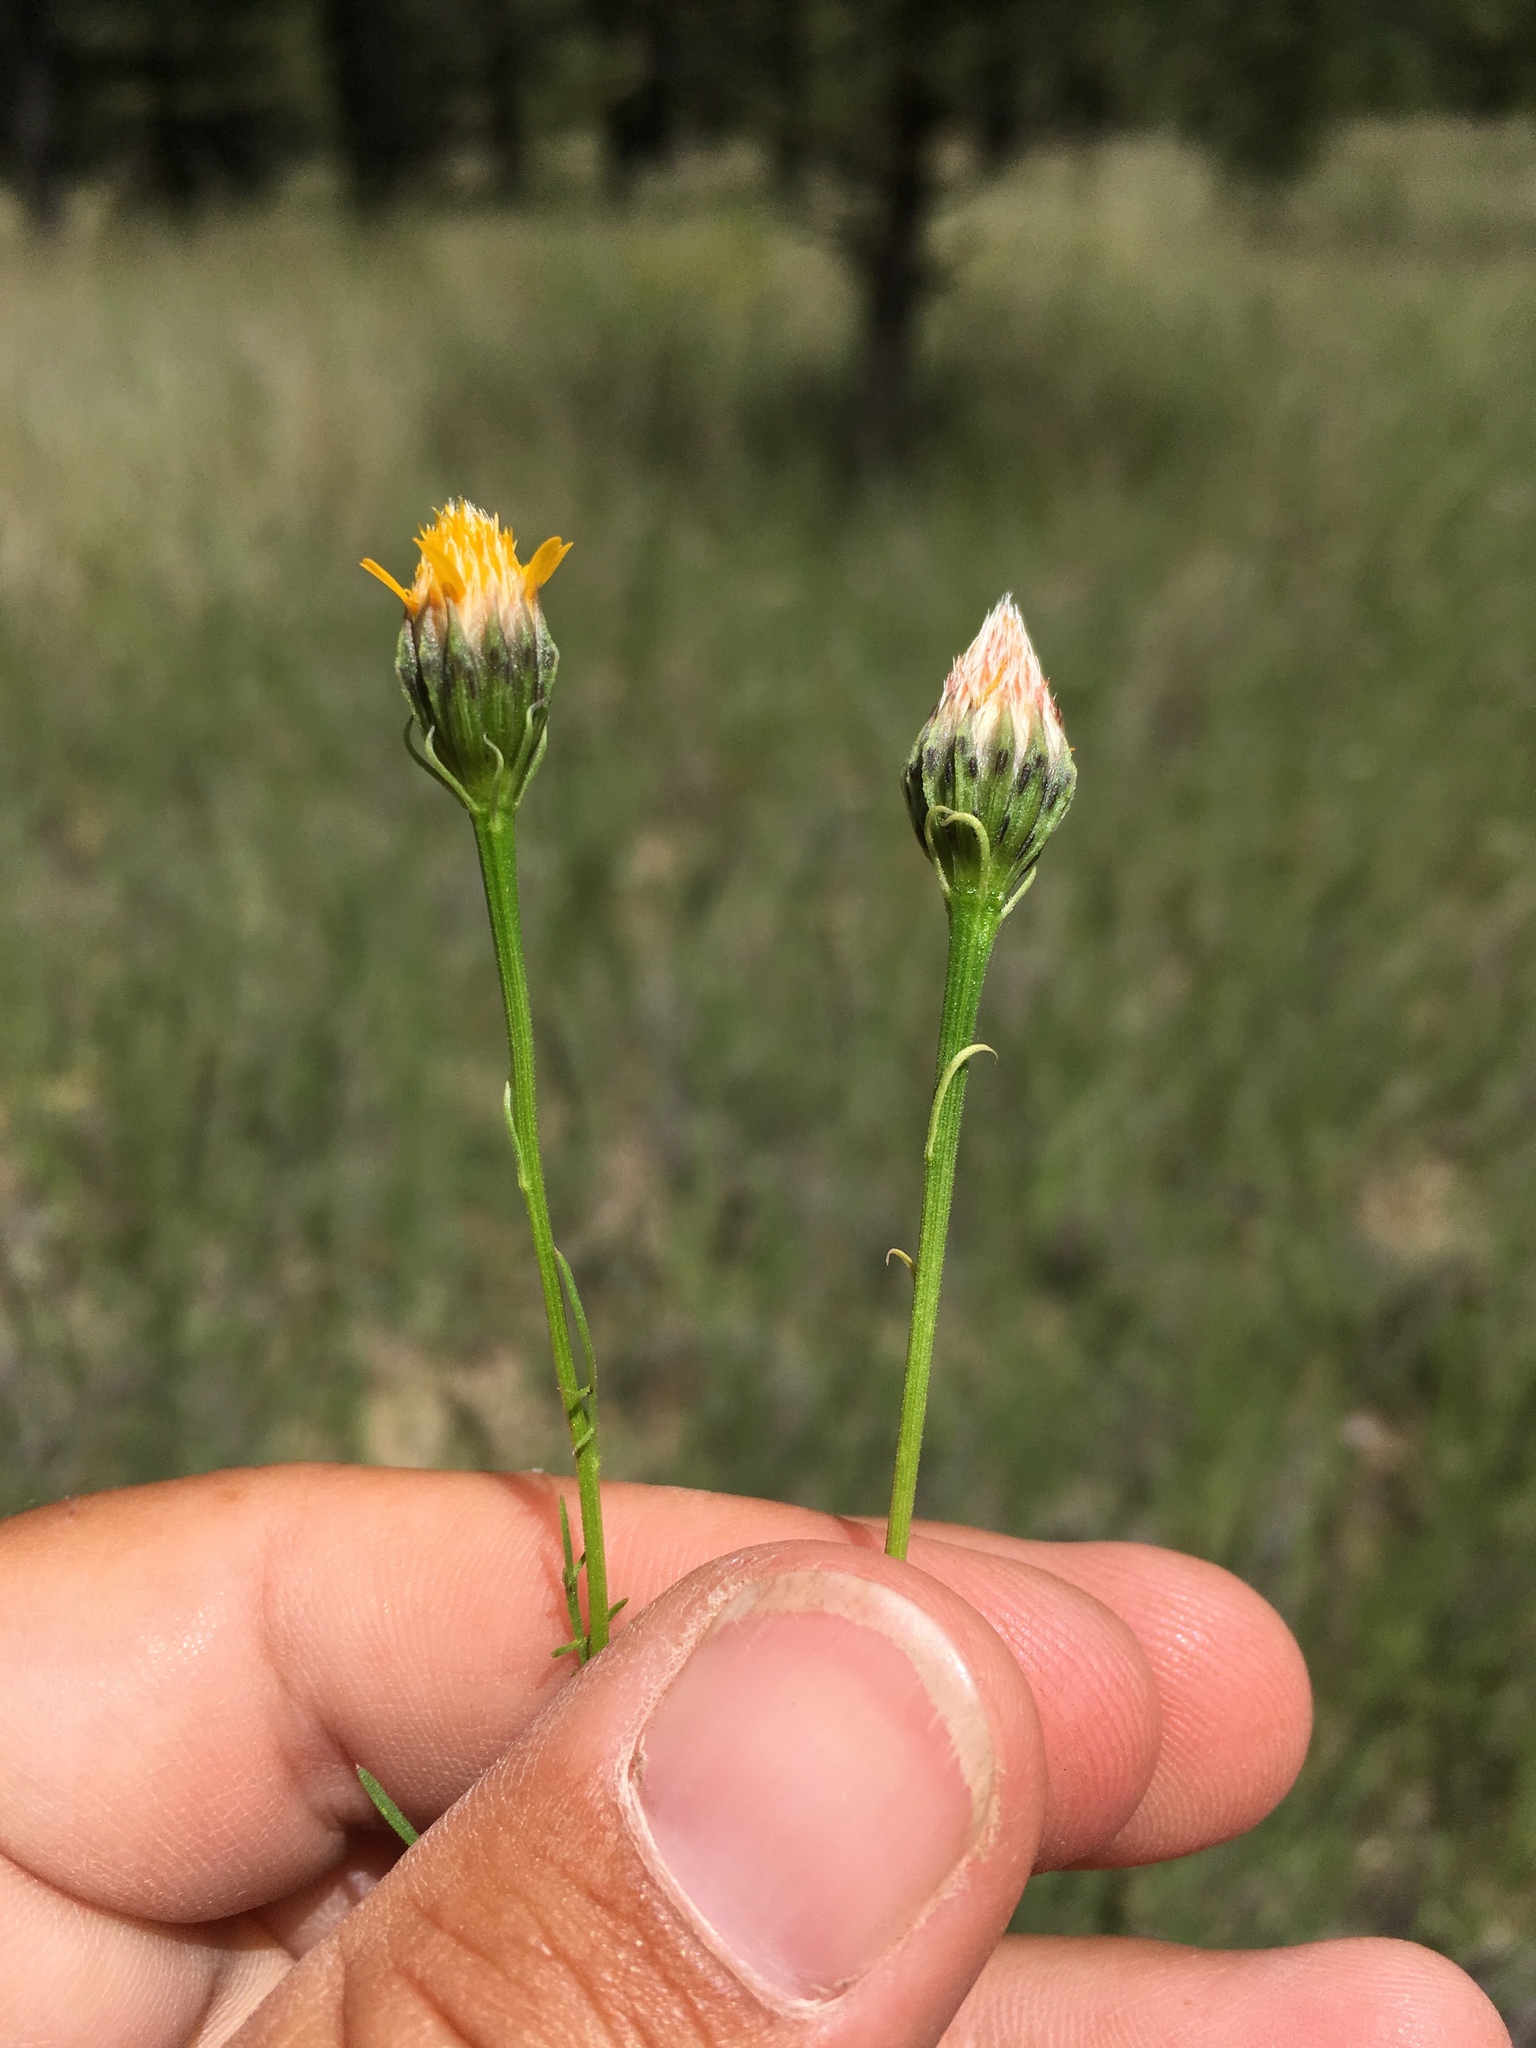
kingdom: Plantae
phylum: Tracheophyta
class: Magnoliopsida
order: Asterales
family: Asteraceae
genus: Adenophyllum
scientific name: Adenophyllum wrightii
